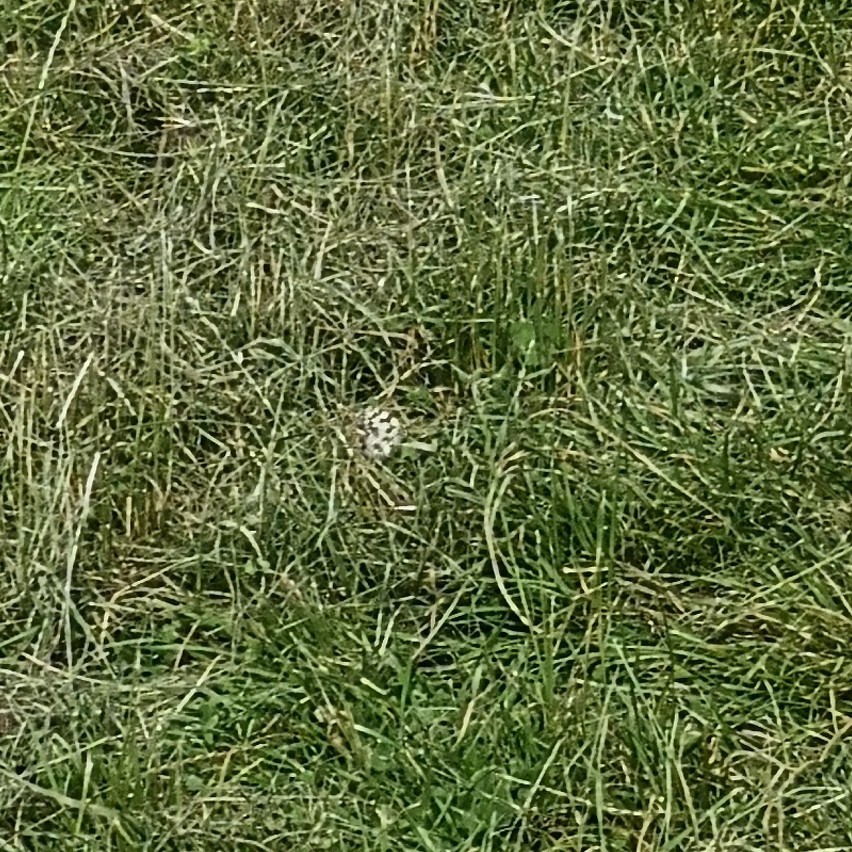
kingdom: Animalia
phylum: Arthropoda
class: Insecta
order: Lepidoptera
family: Nymphalidae
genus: Melanargia
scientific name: Melanargia galathea
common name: Marbled white
